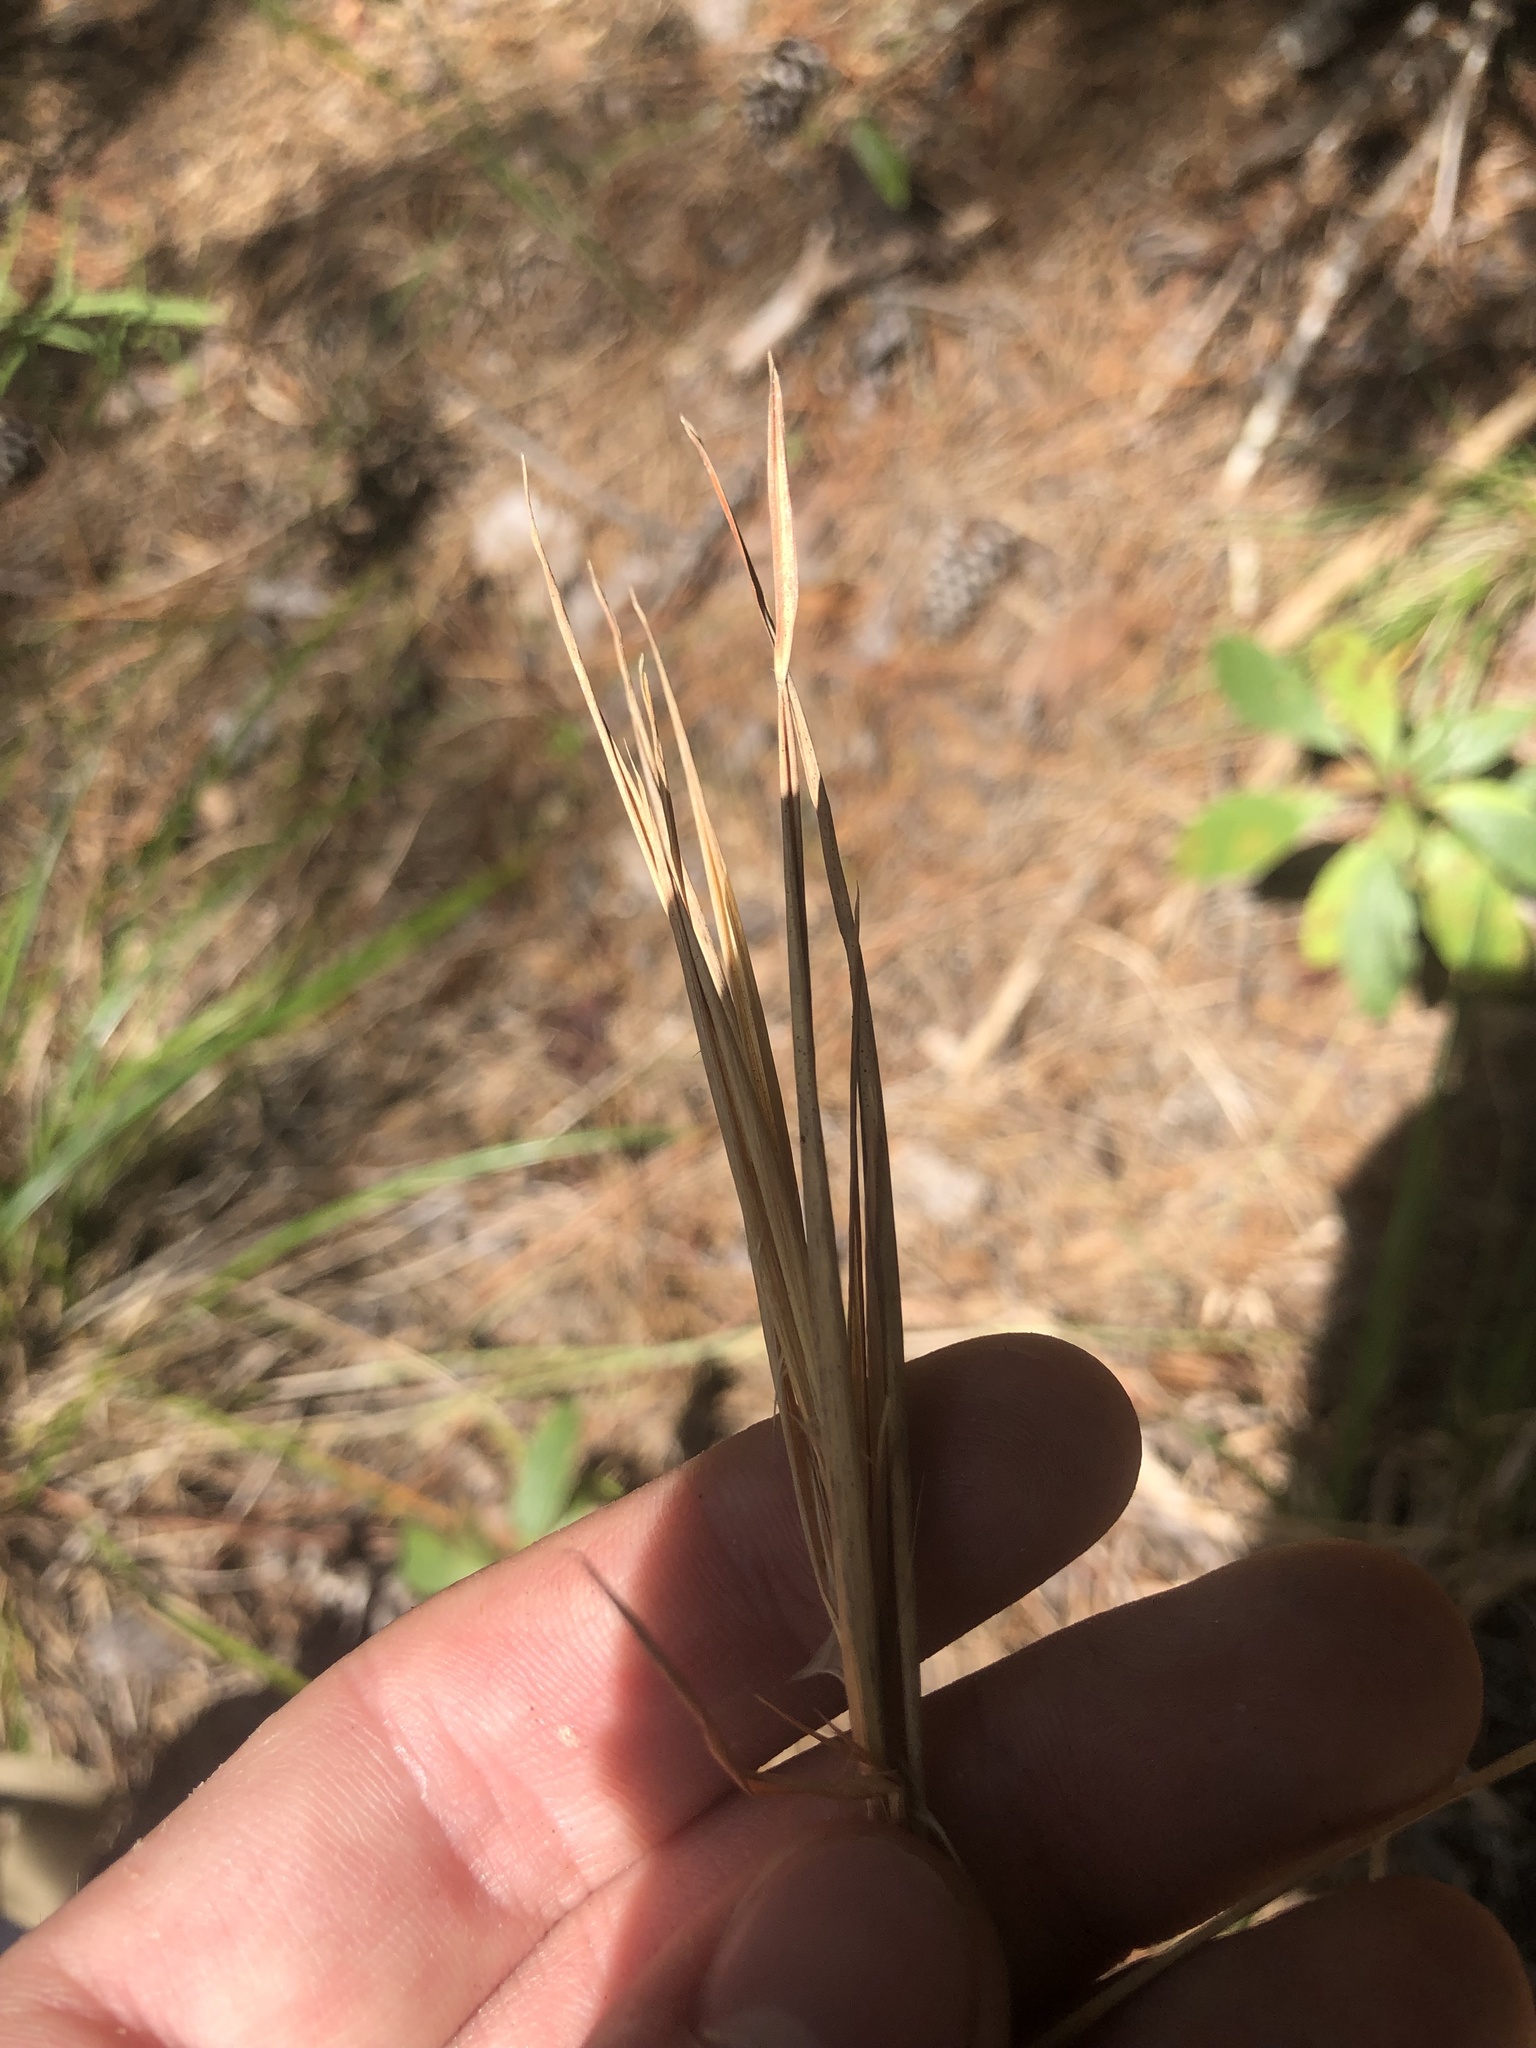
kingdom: Plantae
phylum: Tracheophyta
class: Liliopsida
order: Poales
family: Poaceae
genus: Andropogon
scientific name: Andropogon gyrans
